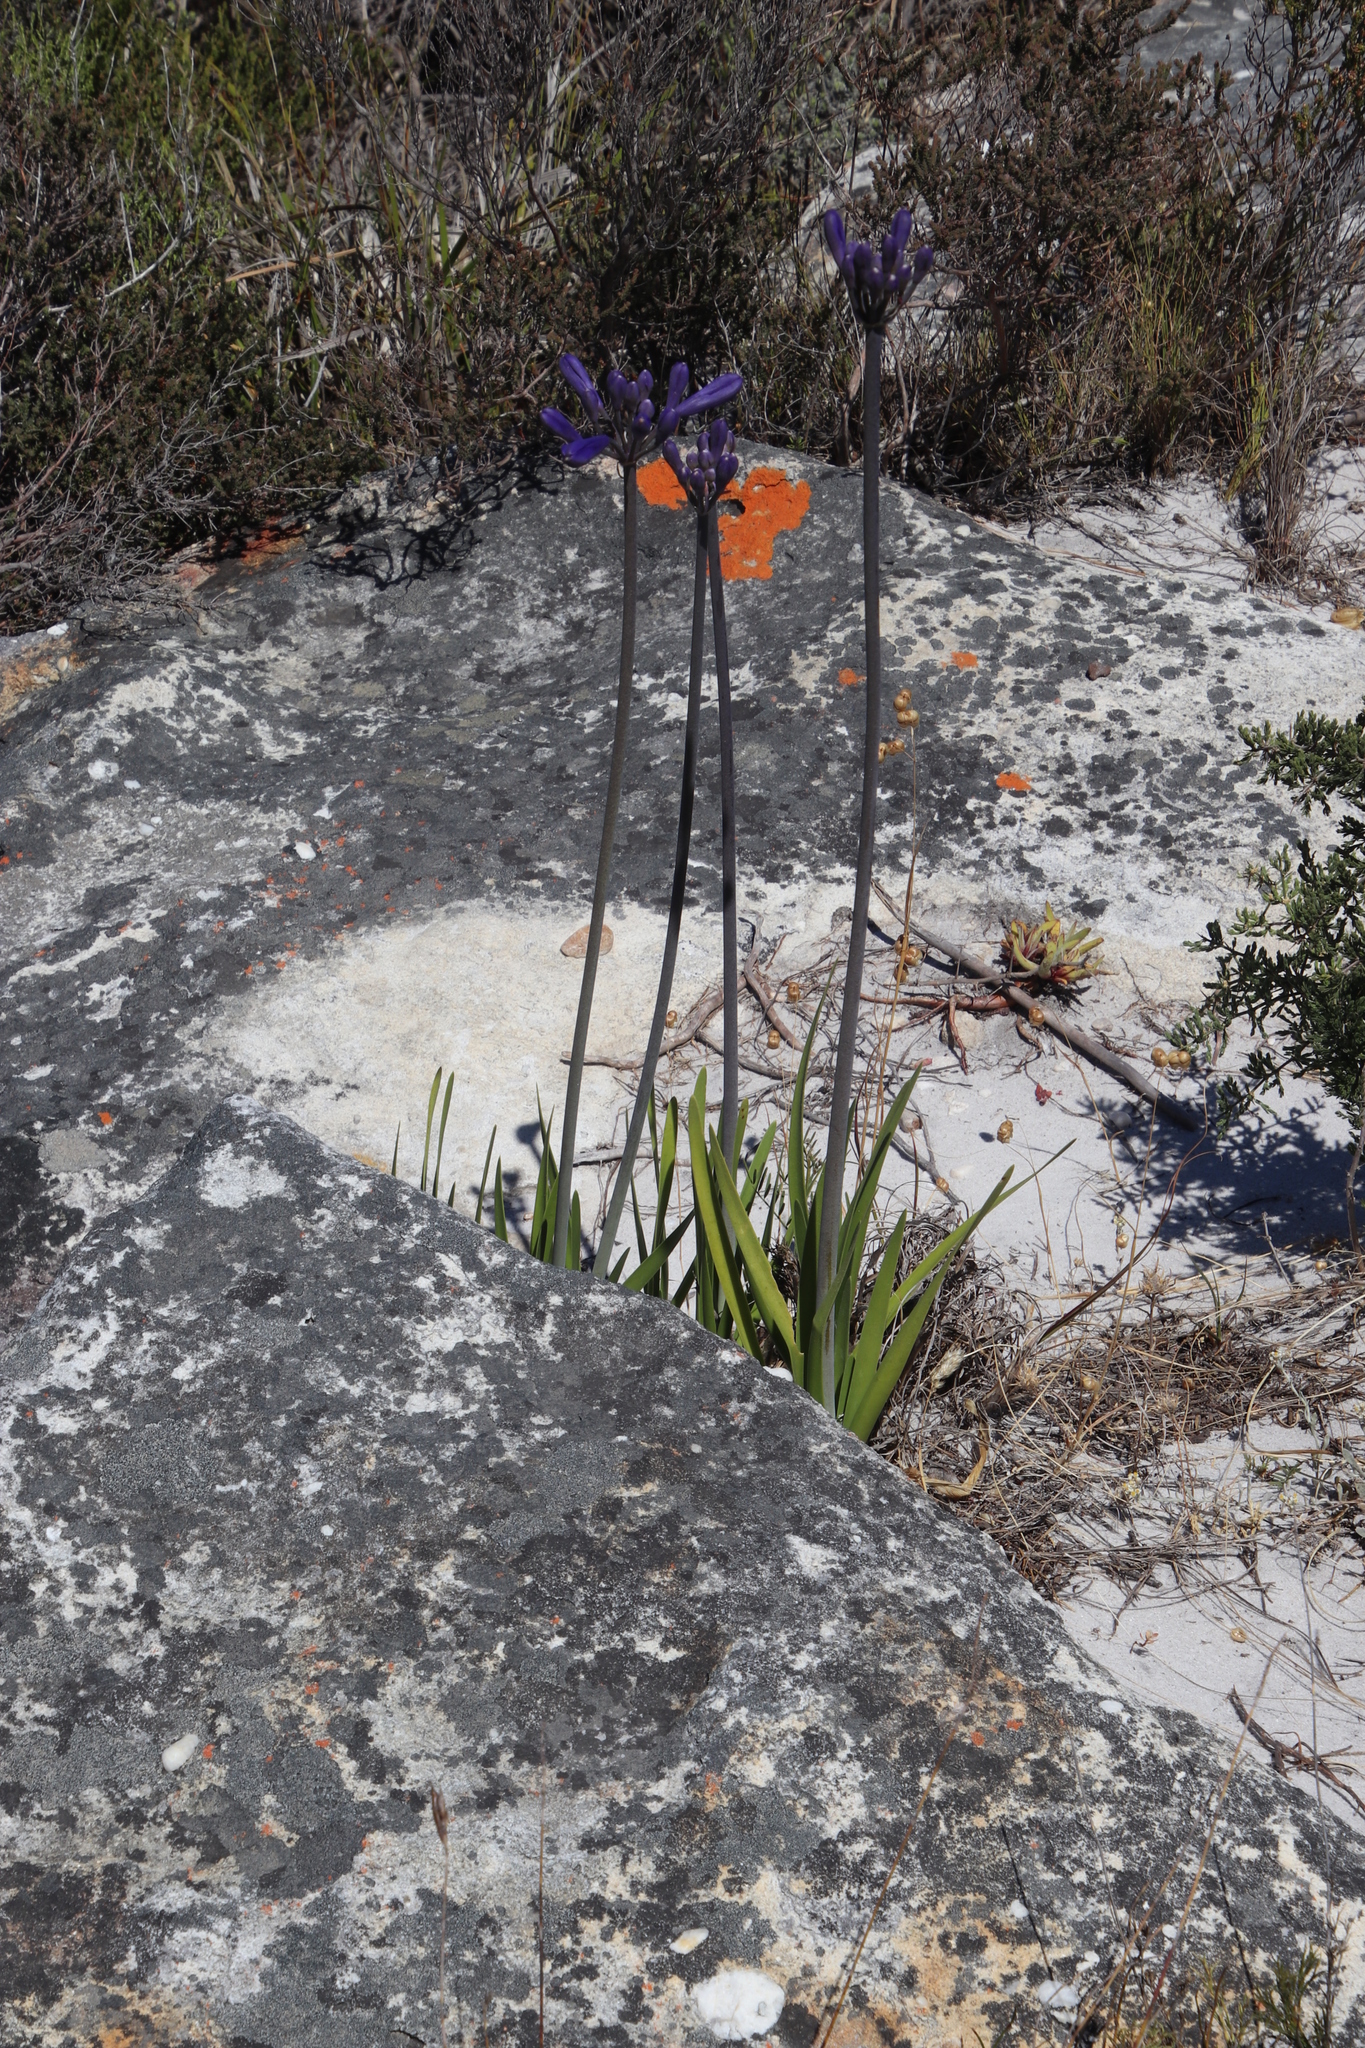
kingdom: Plantae
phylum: Tracheophyta
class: Liliopsida
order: Asparagales
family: Amaryllidaceae
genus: Agapanthus
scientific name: Agapanthus africanus
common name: Lily-of-the-nile
